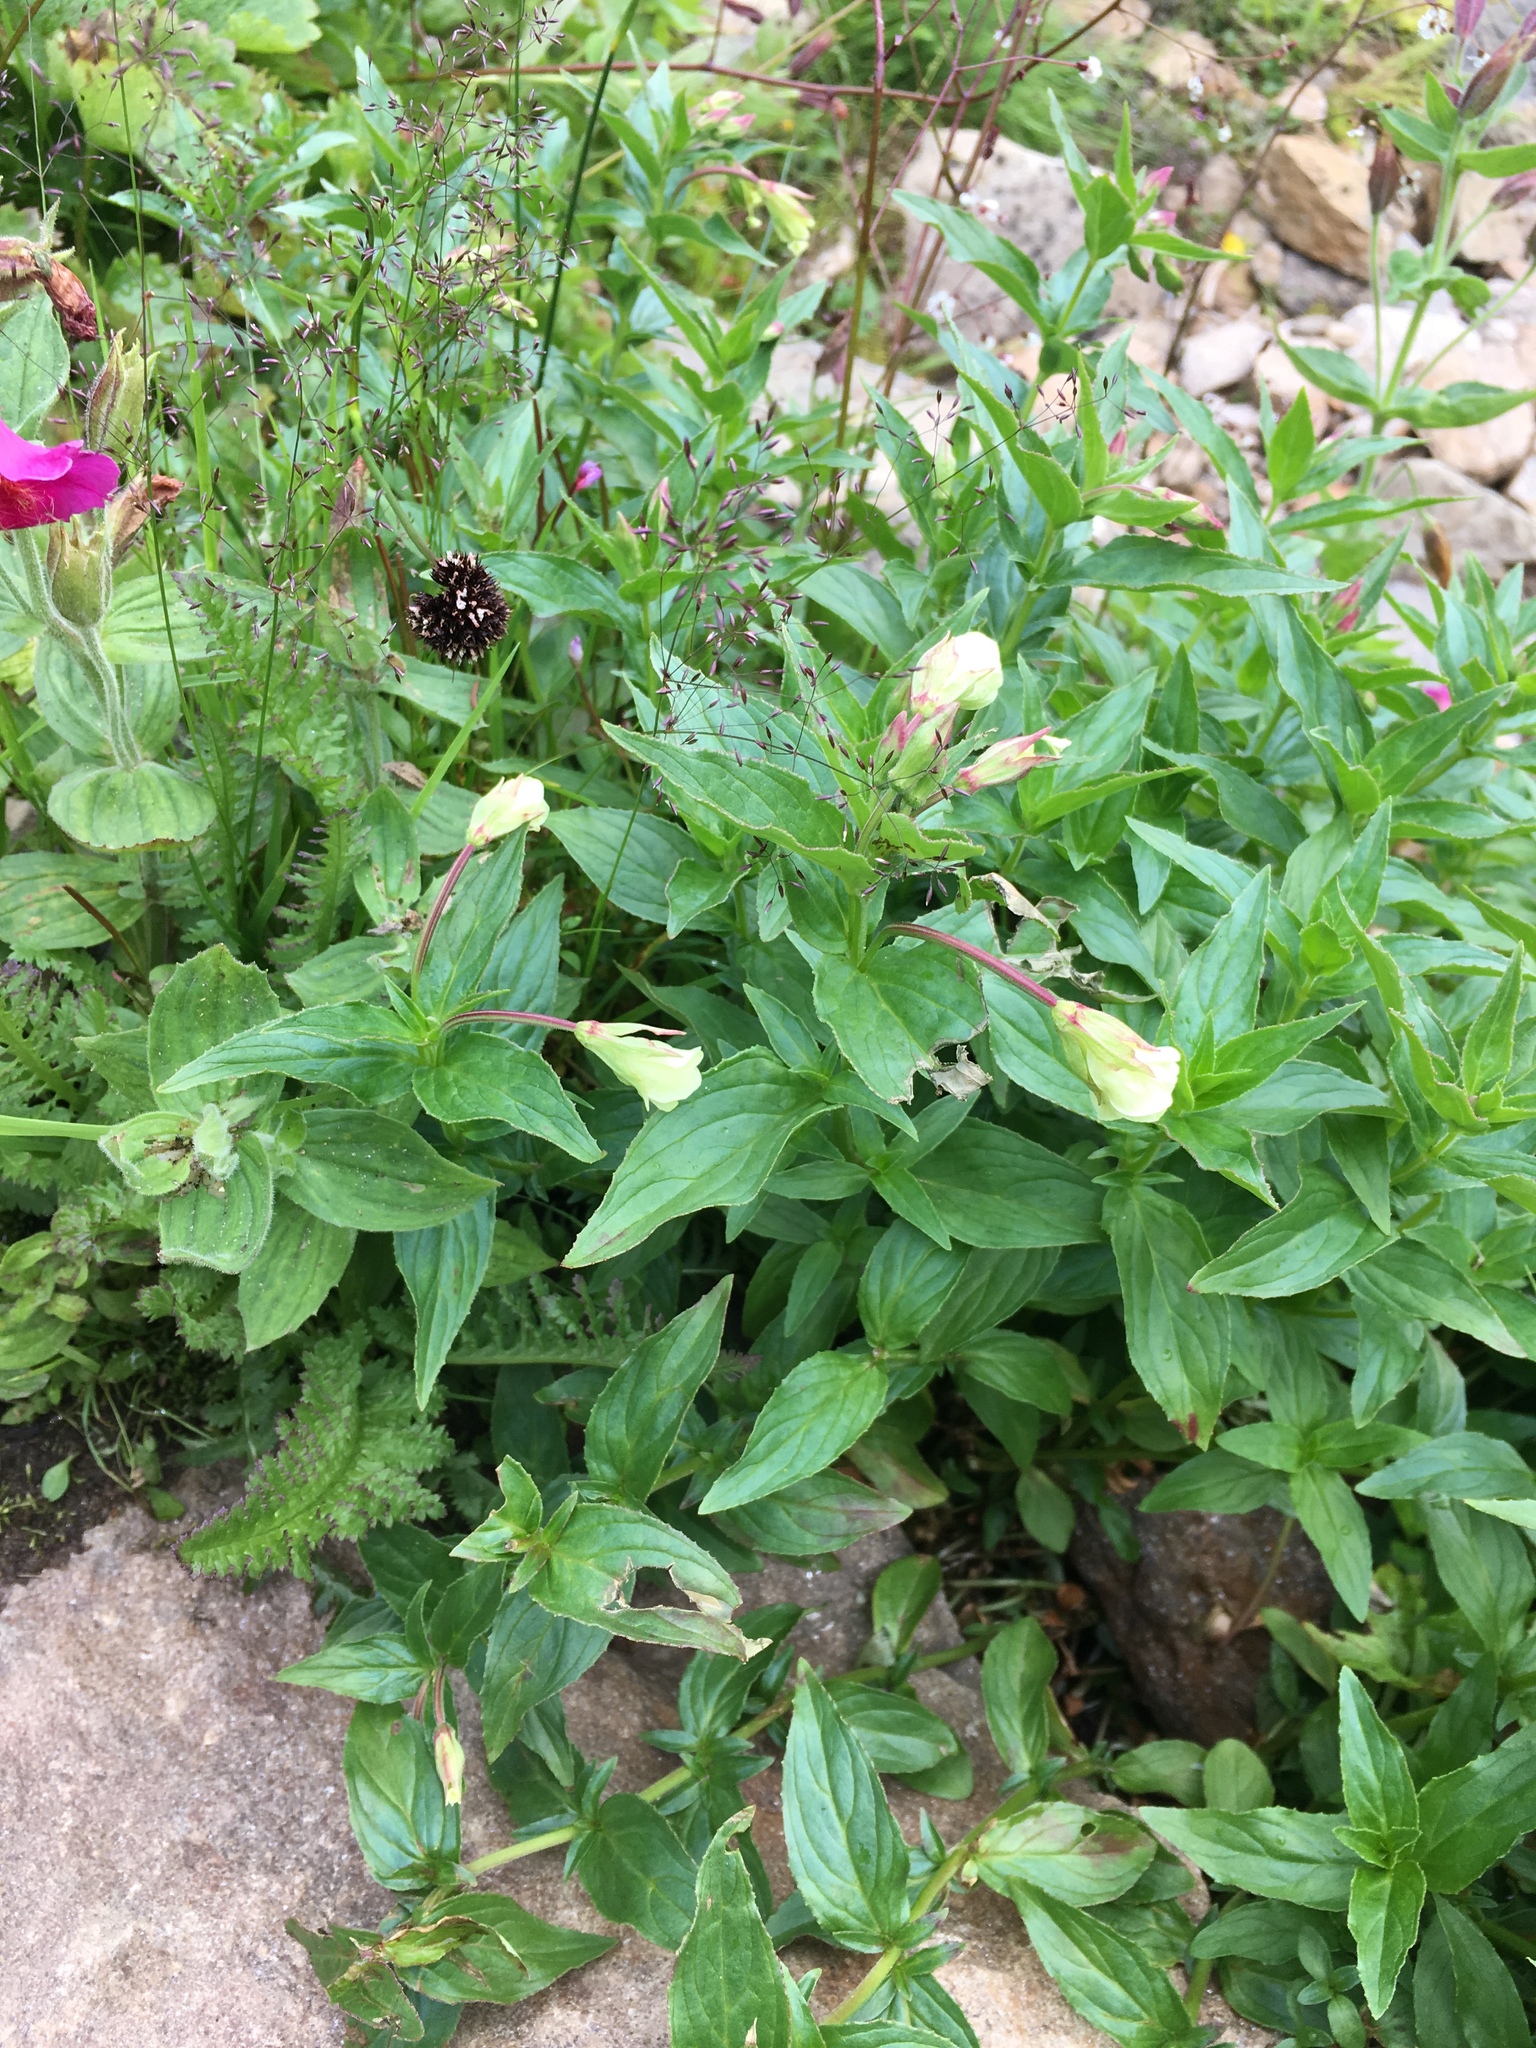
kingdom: Plantae
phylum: Tracheophyta
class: Magnoliopsida
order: Myrtales
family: Onagraceae
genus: Epilobium
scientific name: Epilobium luteum
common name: Yellow willowherb
